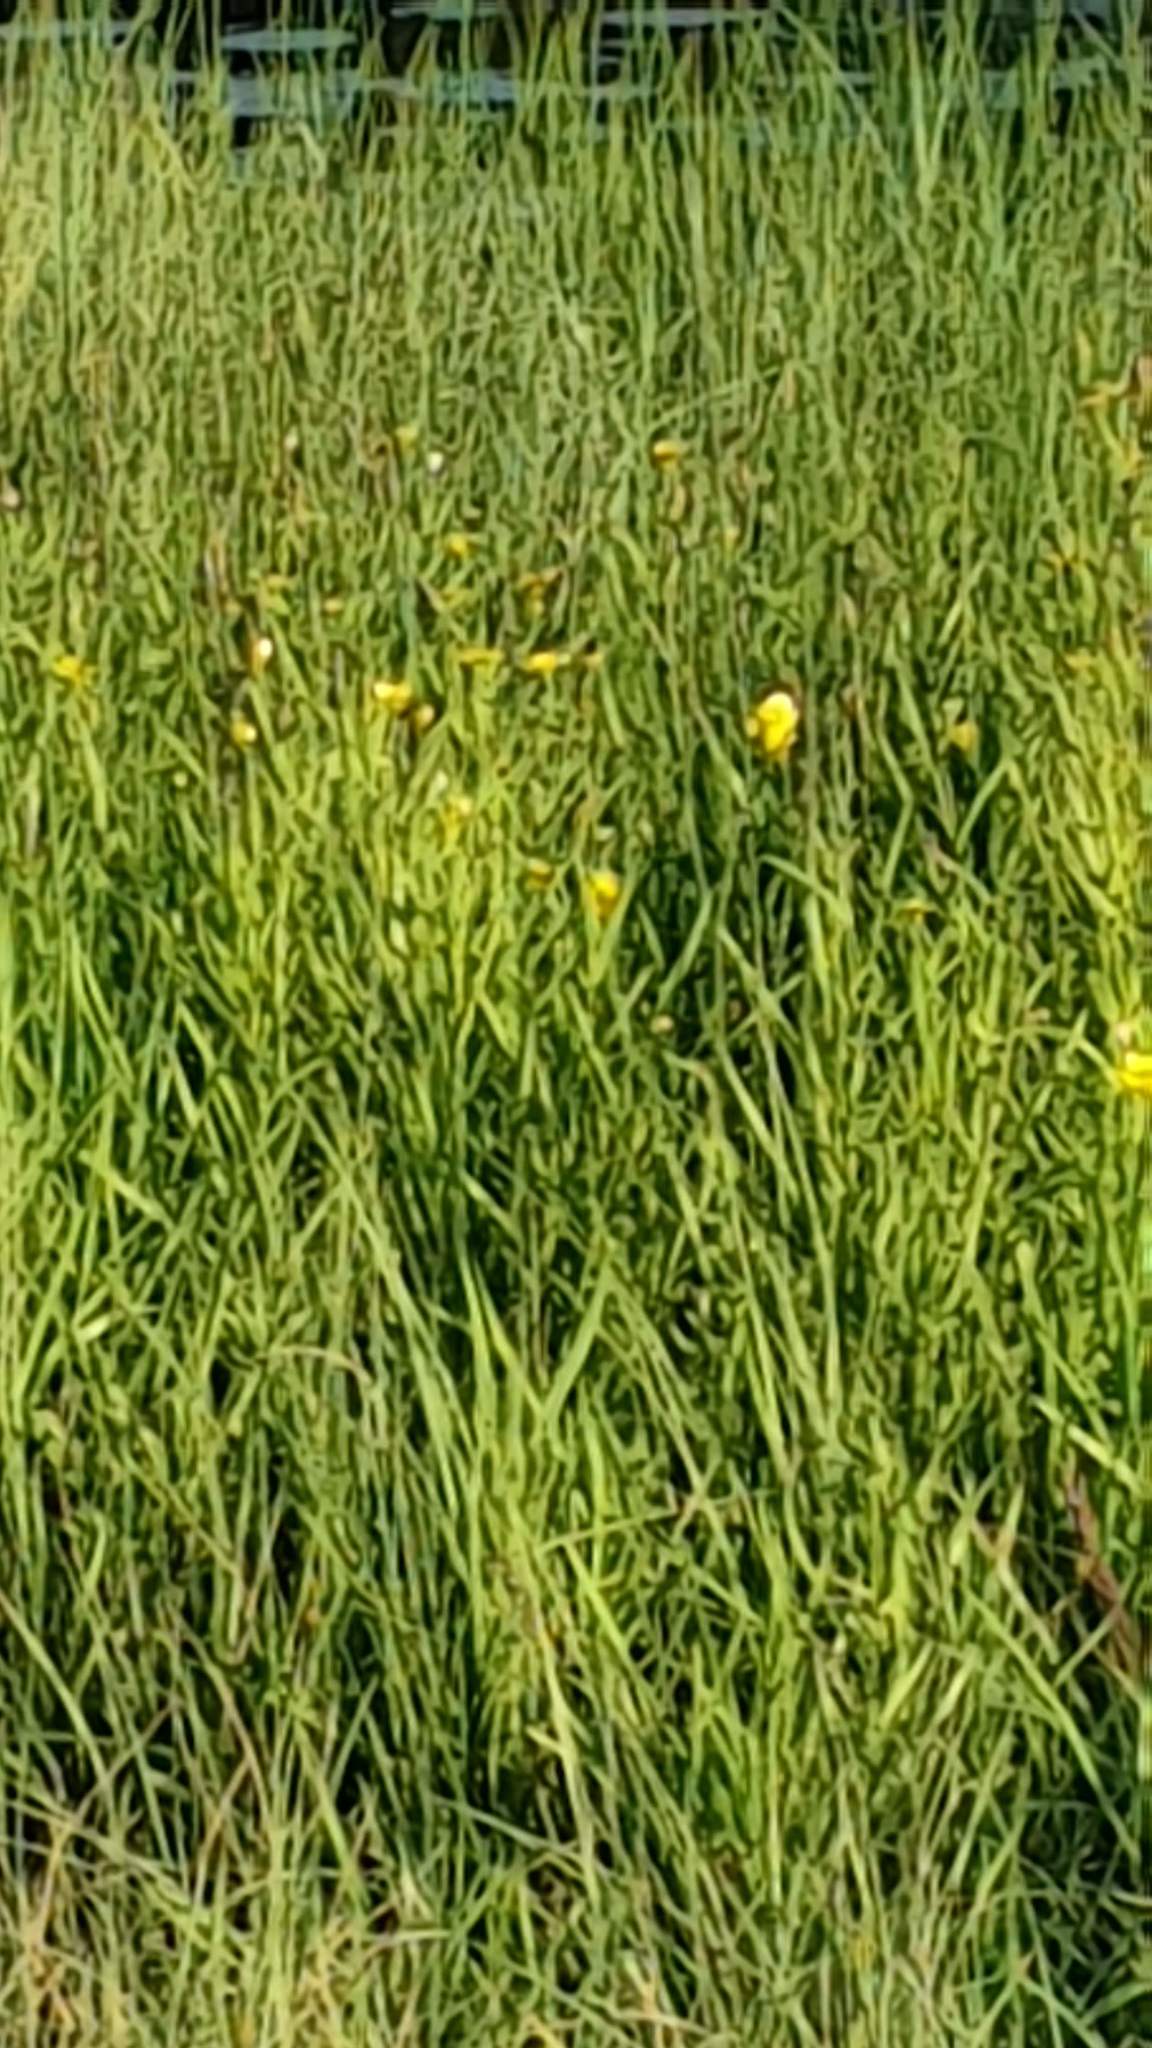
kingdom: Plantae
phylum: Tracheophyta
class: Magnoliopsida
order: Ranunculales
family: Ranunculaceae
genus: Ranunculus
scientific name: Ranunculus lingua
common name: Greater spearwort
